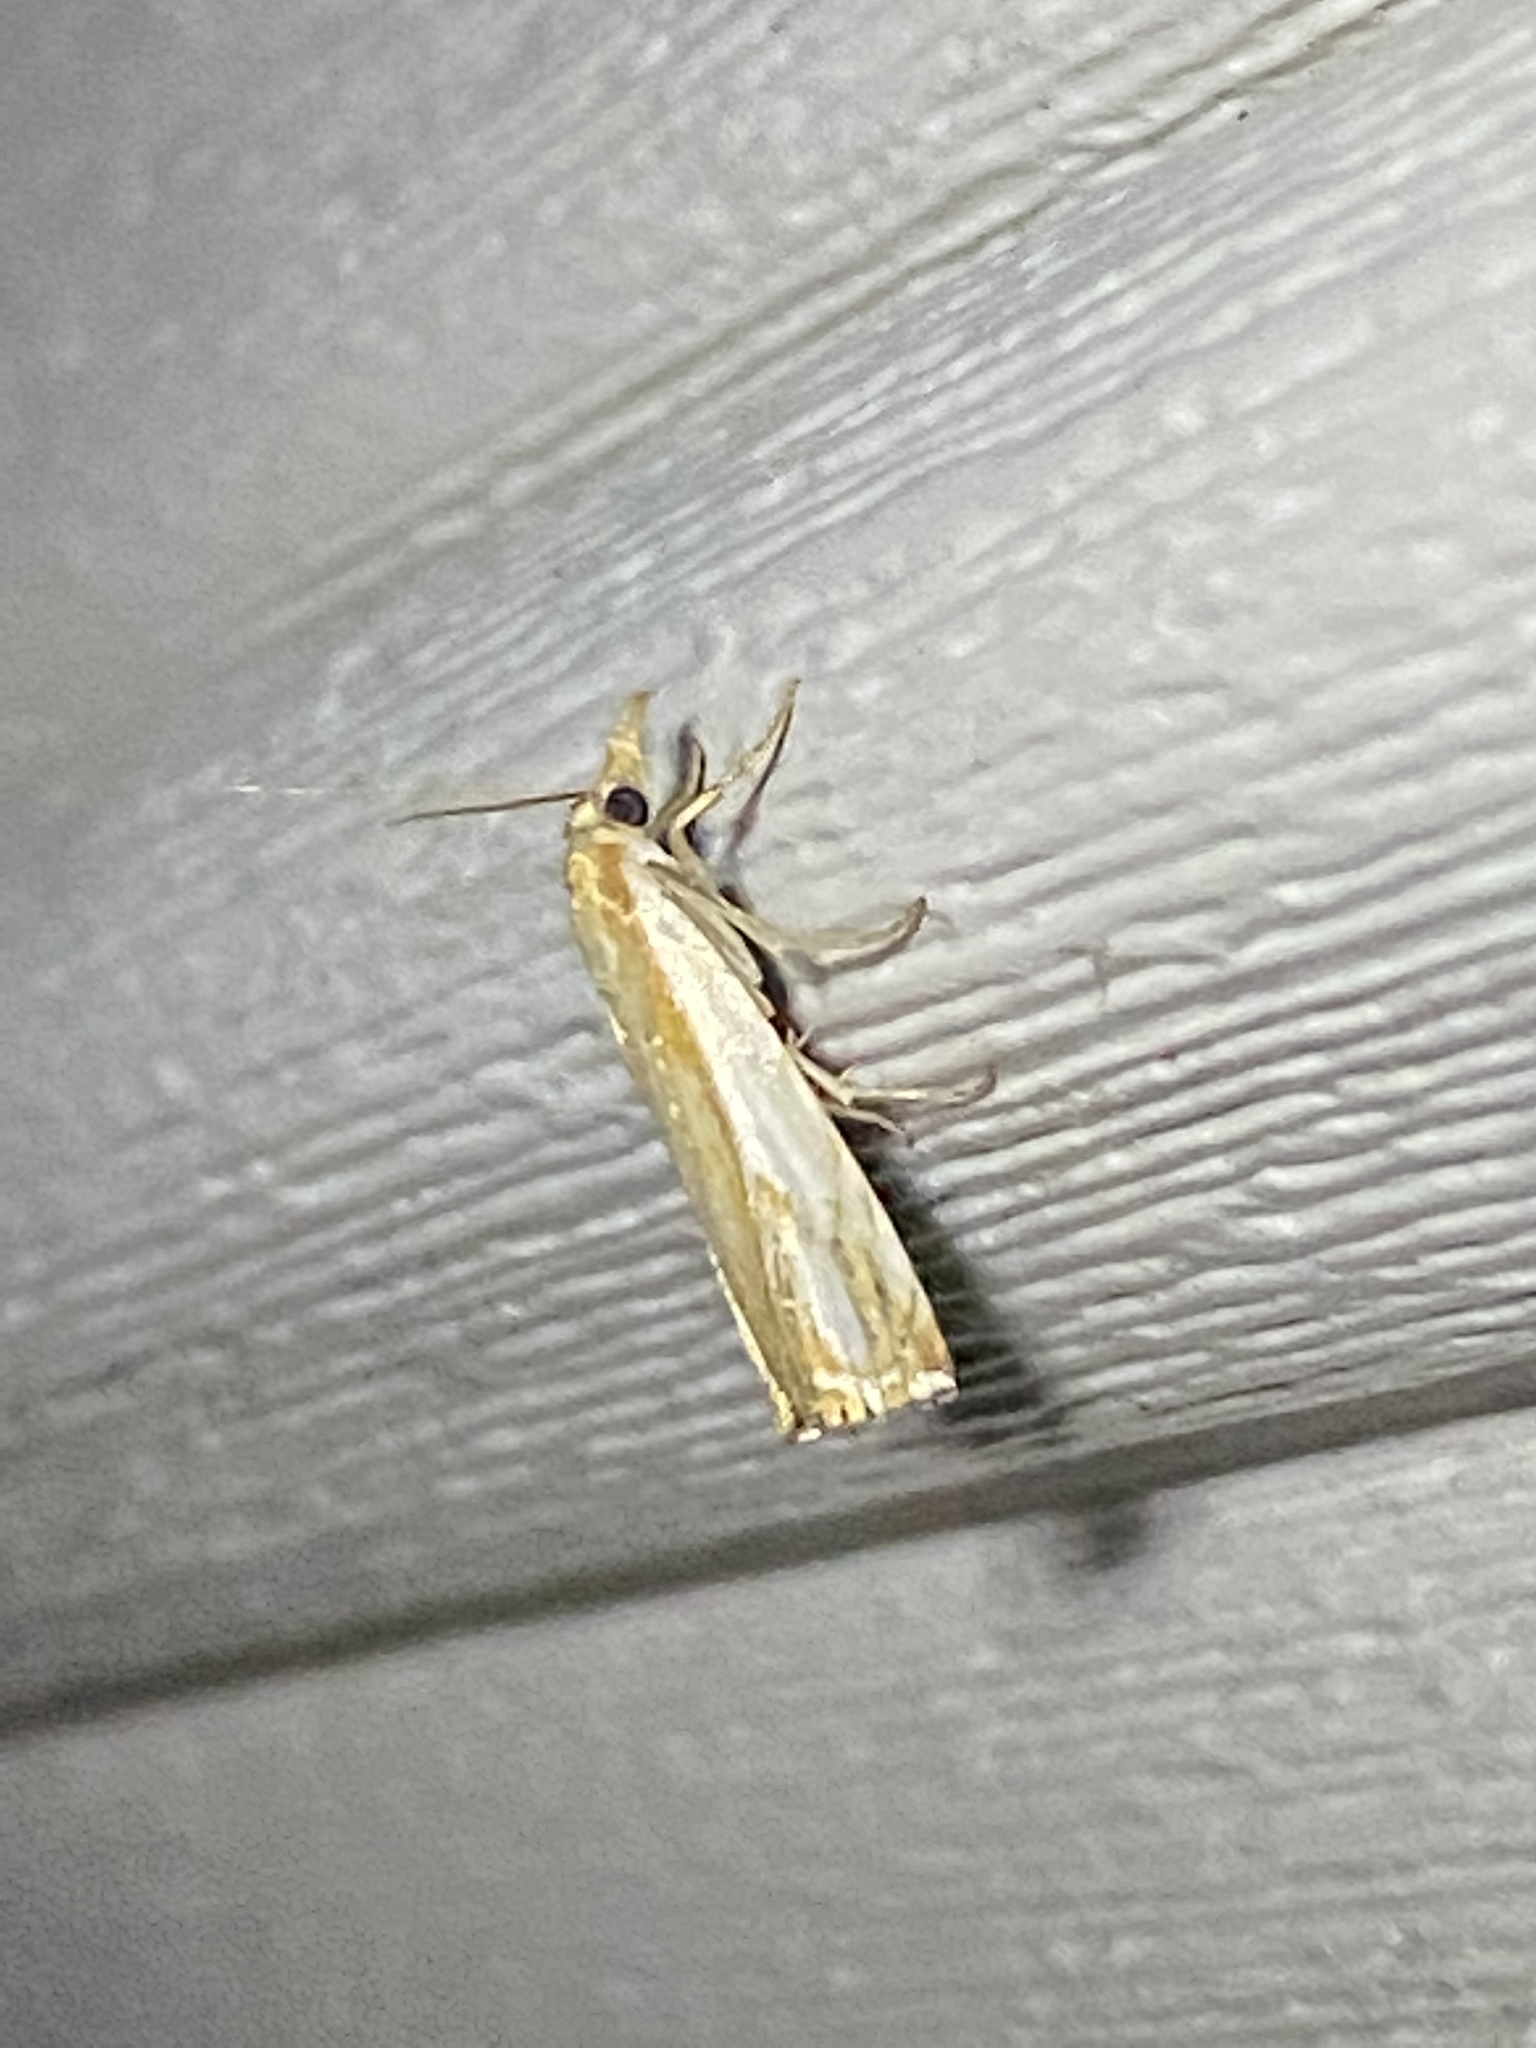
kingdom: Animalia
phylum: Arthropoda
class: Insecta
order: Lepidoptera
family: Crambidae
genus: Crambus
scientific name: Crambus agitatellus
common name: Double-banded grass-veneer
